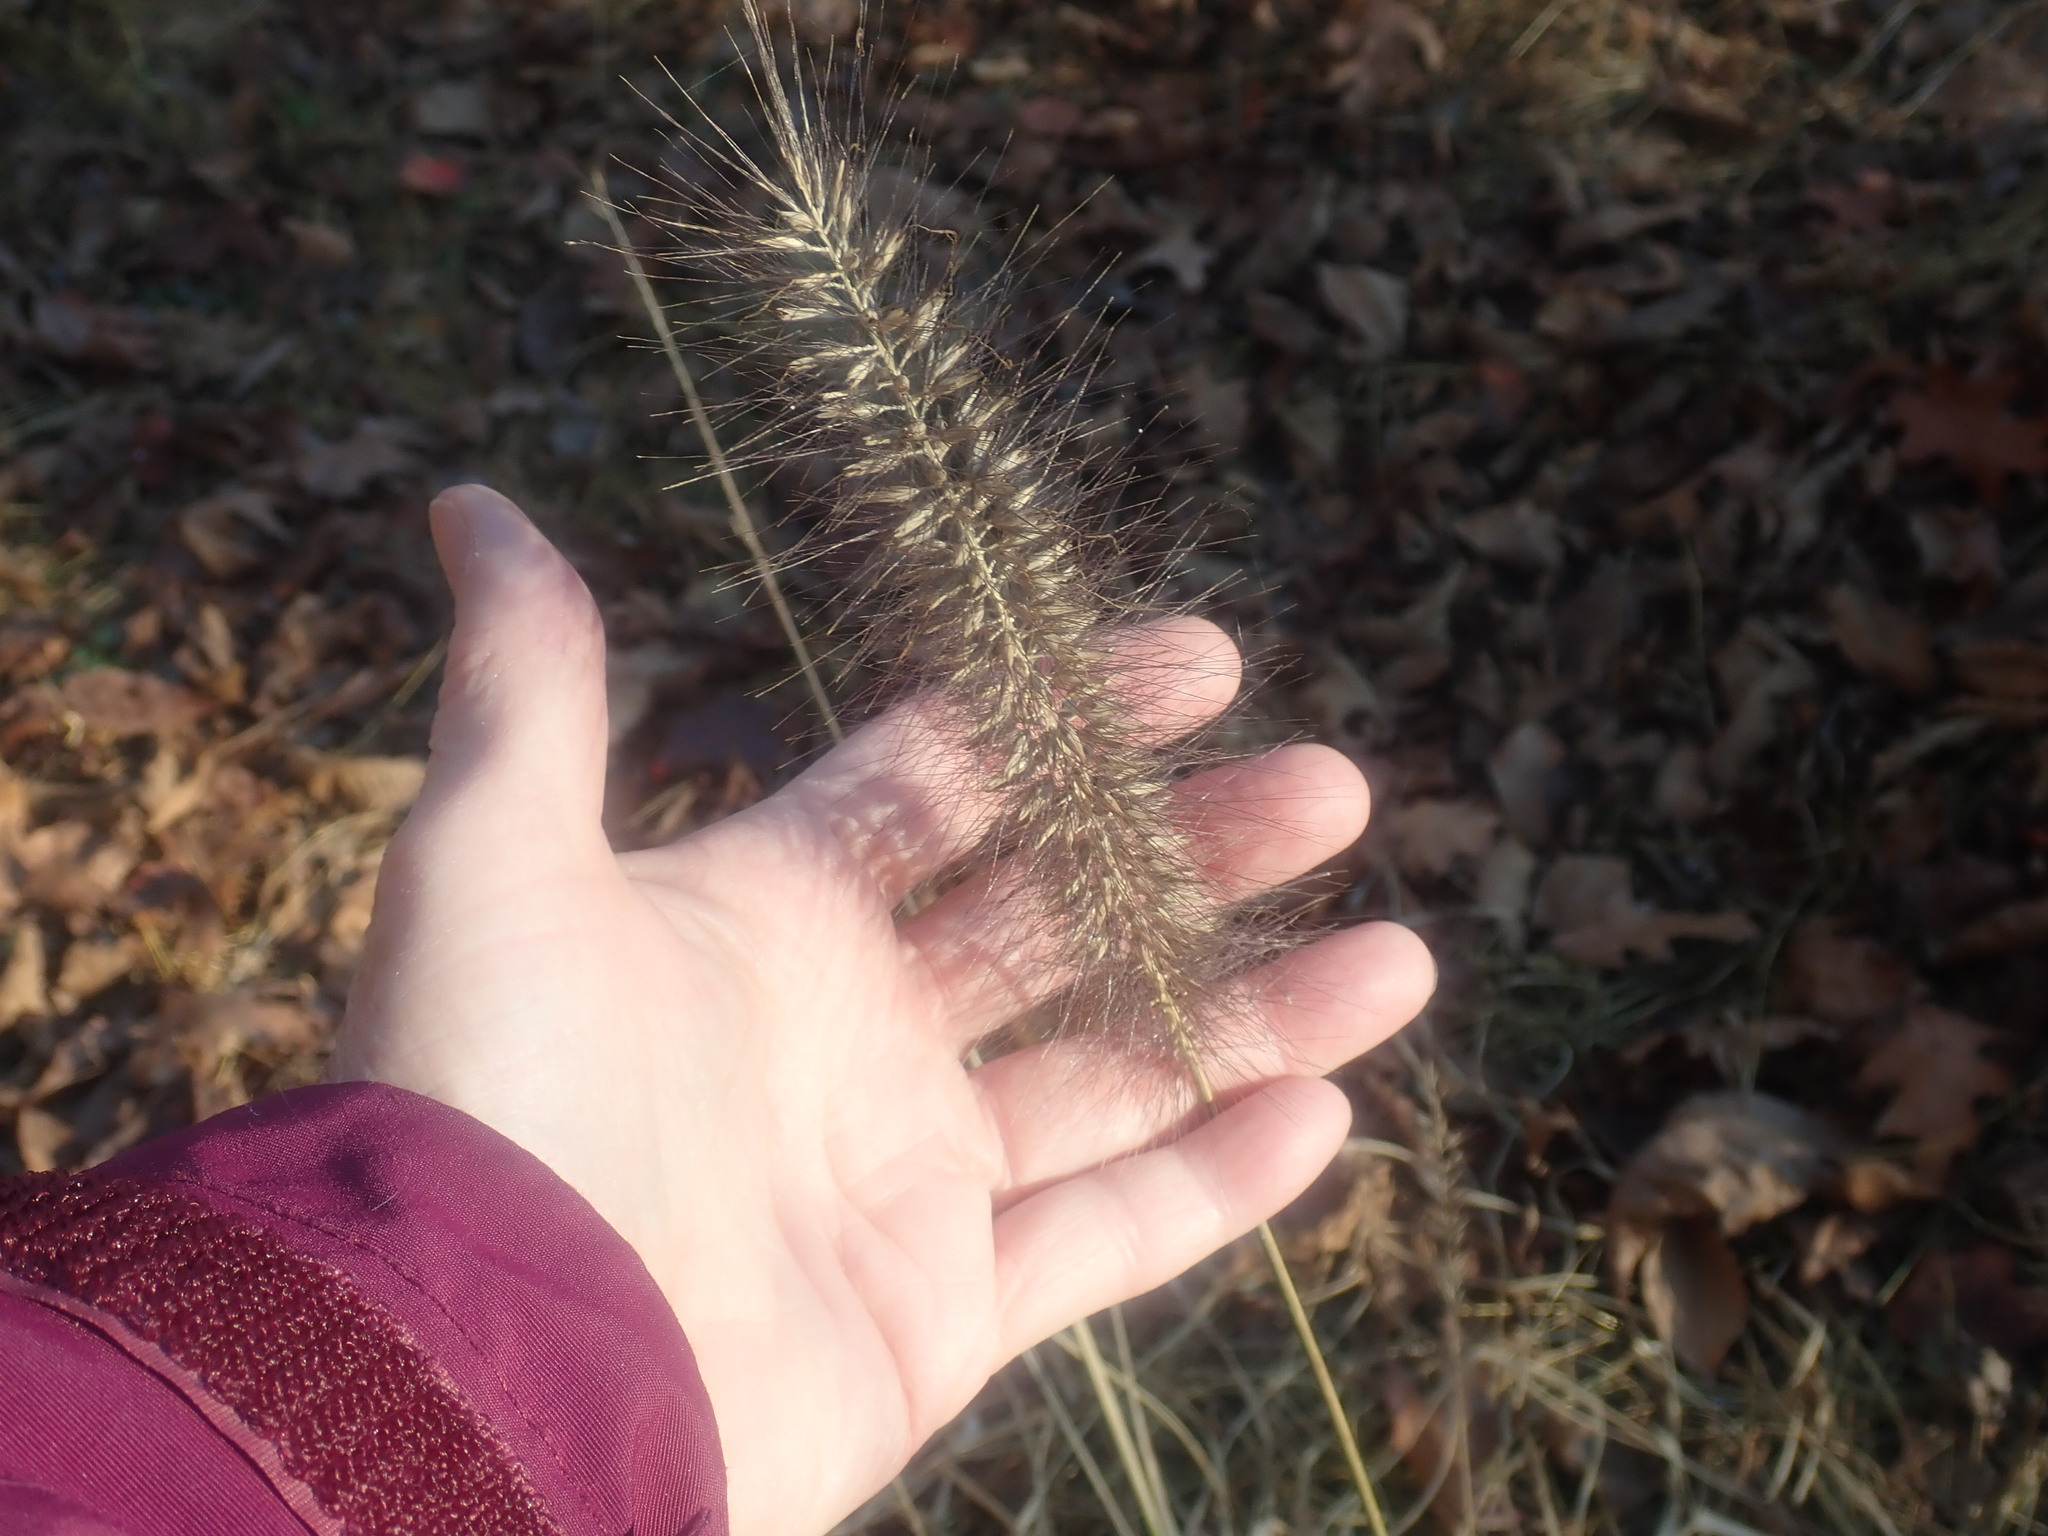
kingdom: Plantae
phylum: Tracheophyta
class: Liliopsida
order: Poales
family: Poaceae
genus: Cenchrus
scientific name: Cenchrus alopecuroides
